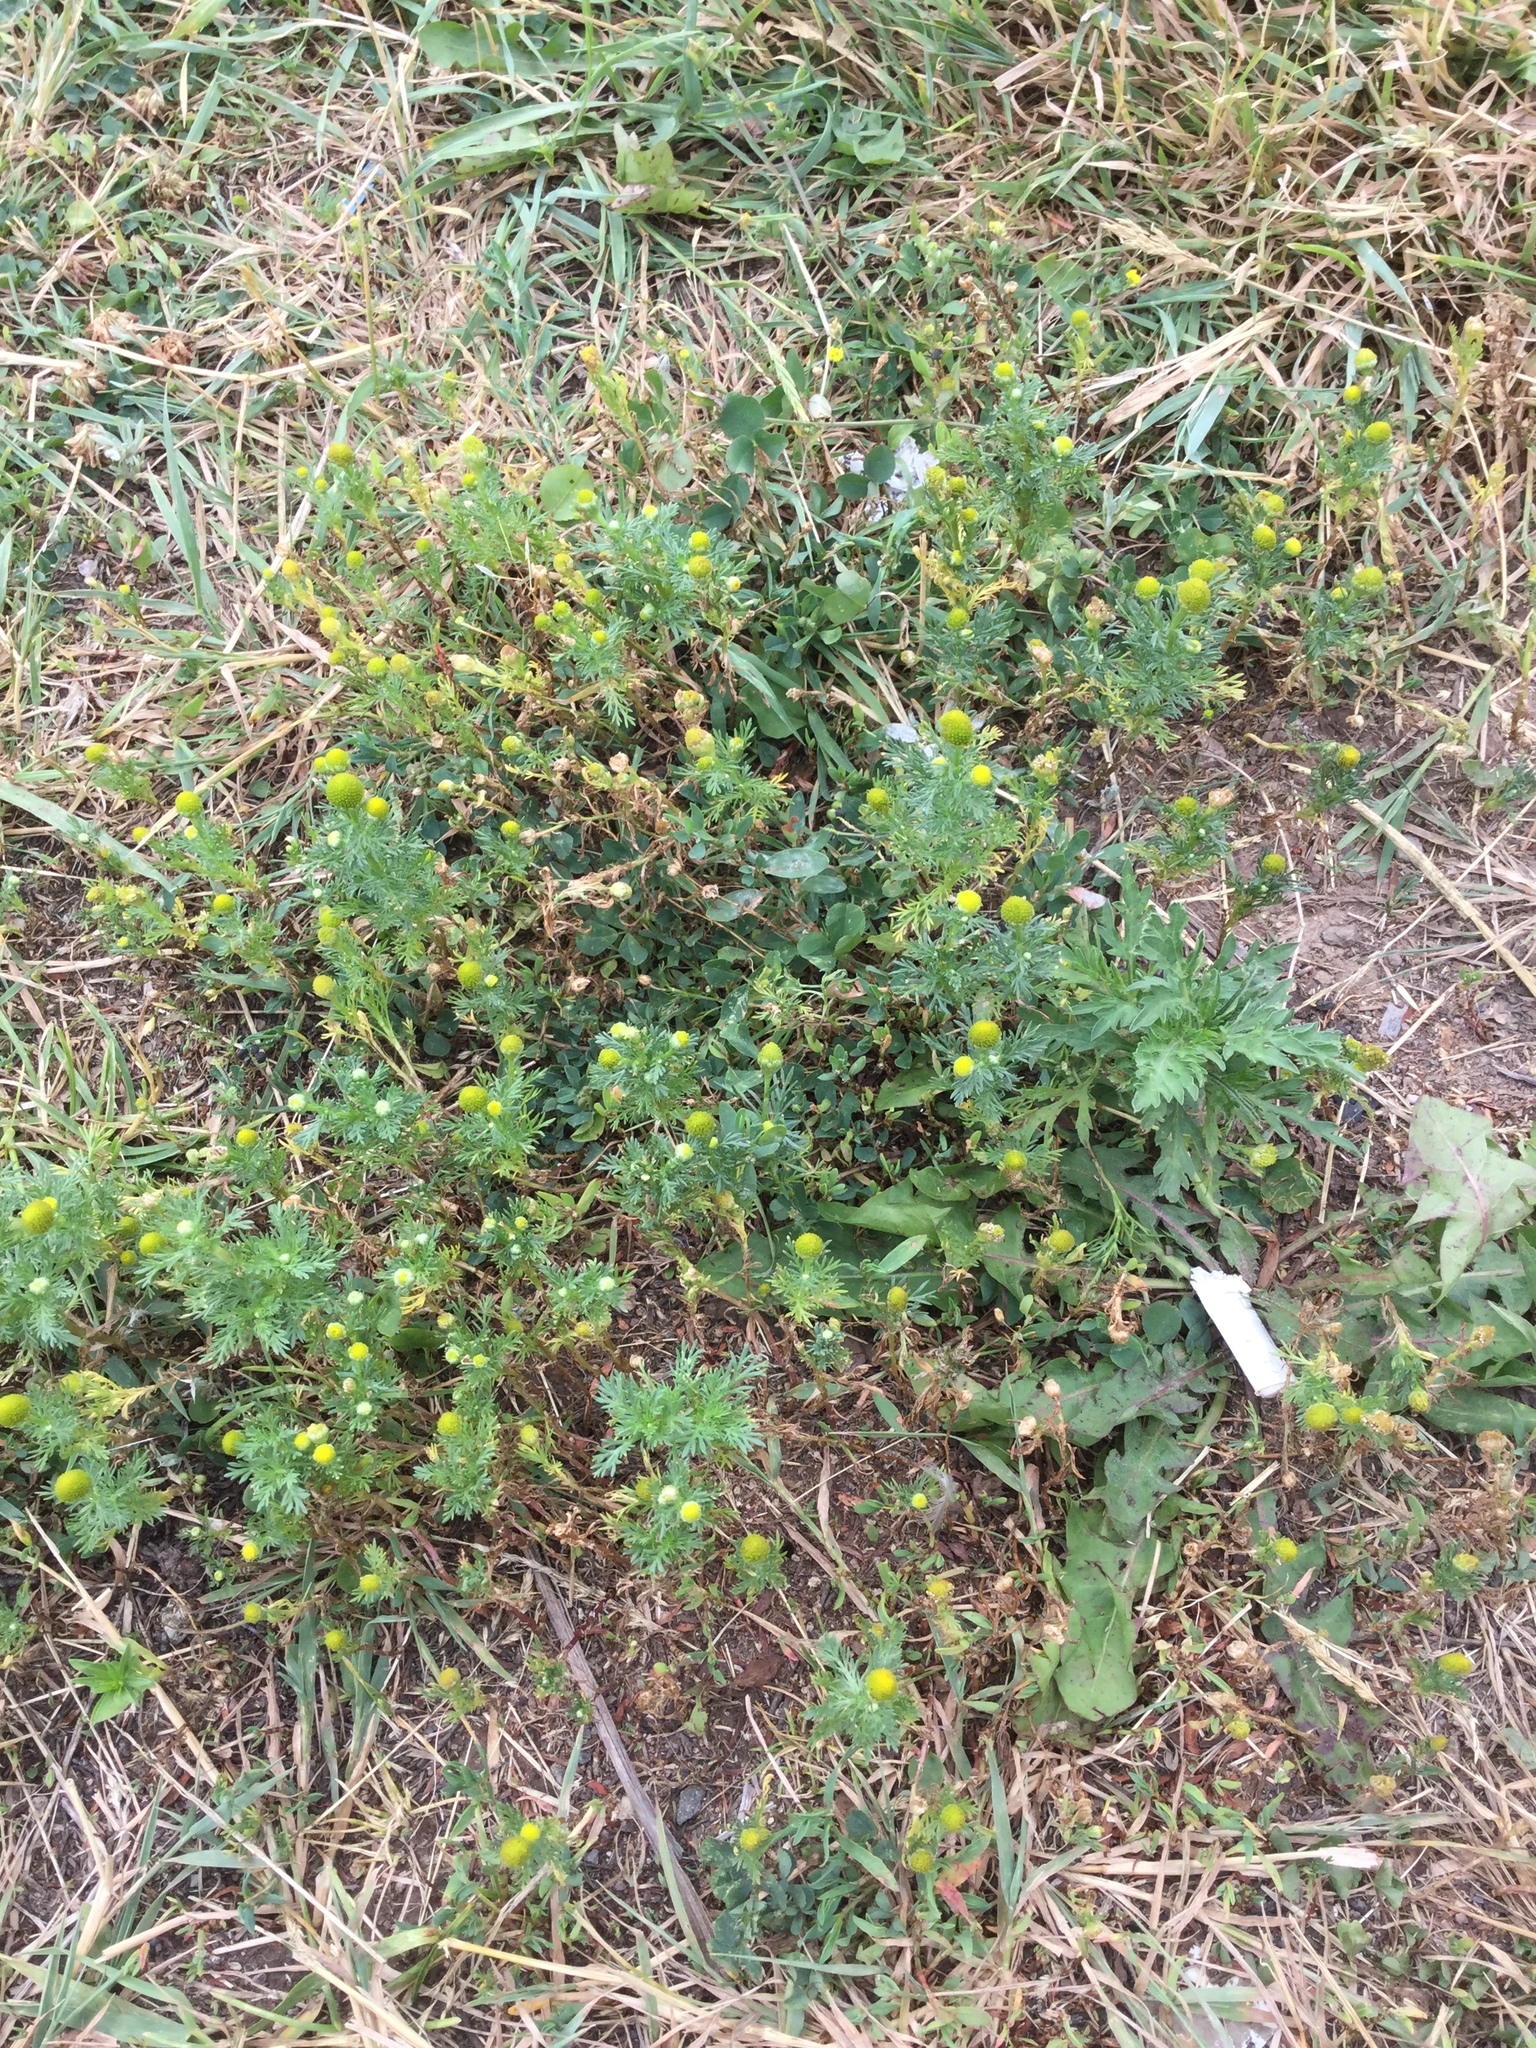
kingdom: Plantae
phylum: Tracheophyta
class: Magnoliopsida
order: Asterales
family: Asteraceae
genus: Matricaria
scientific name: Matricaria discoidea
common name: Disc mayweed
